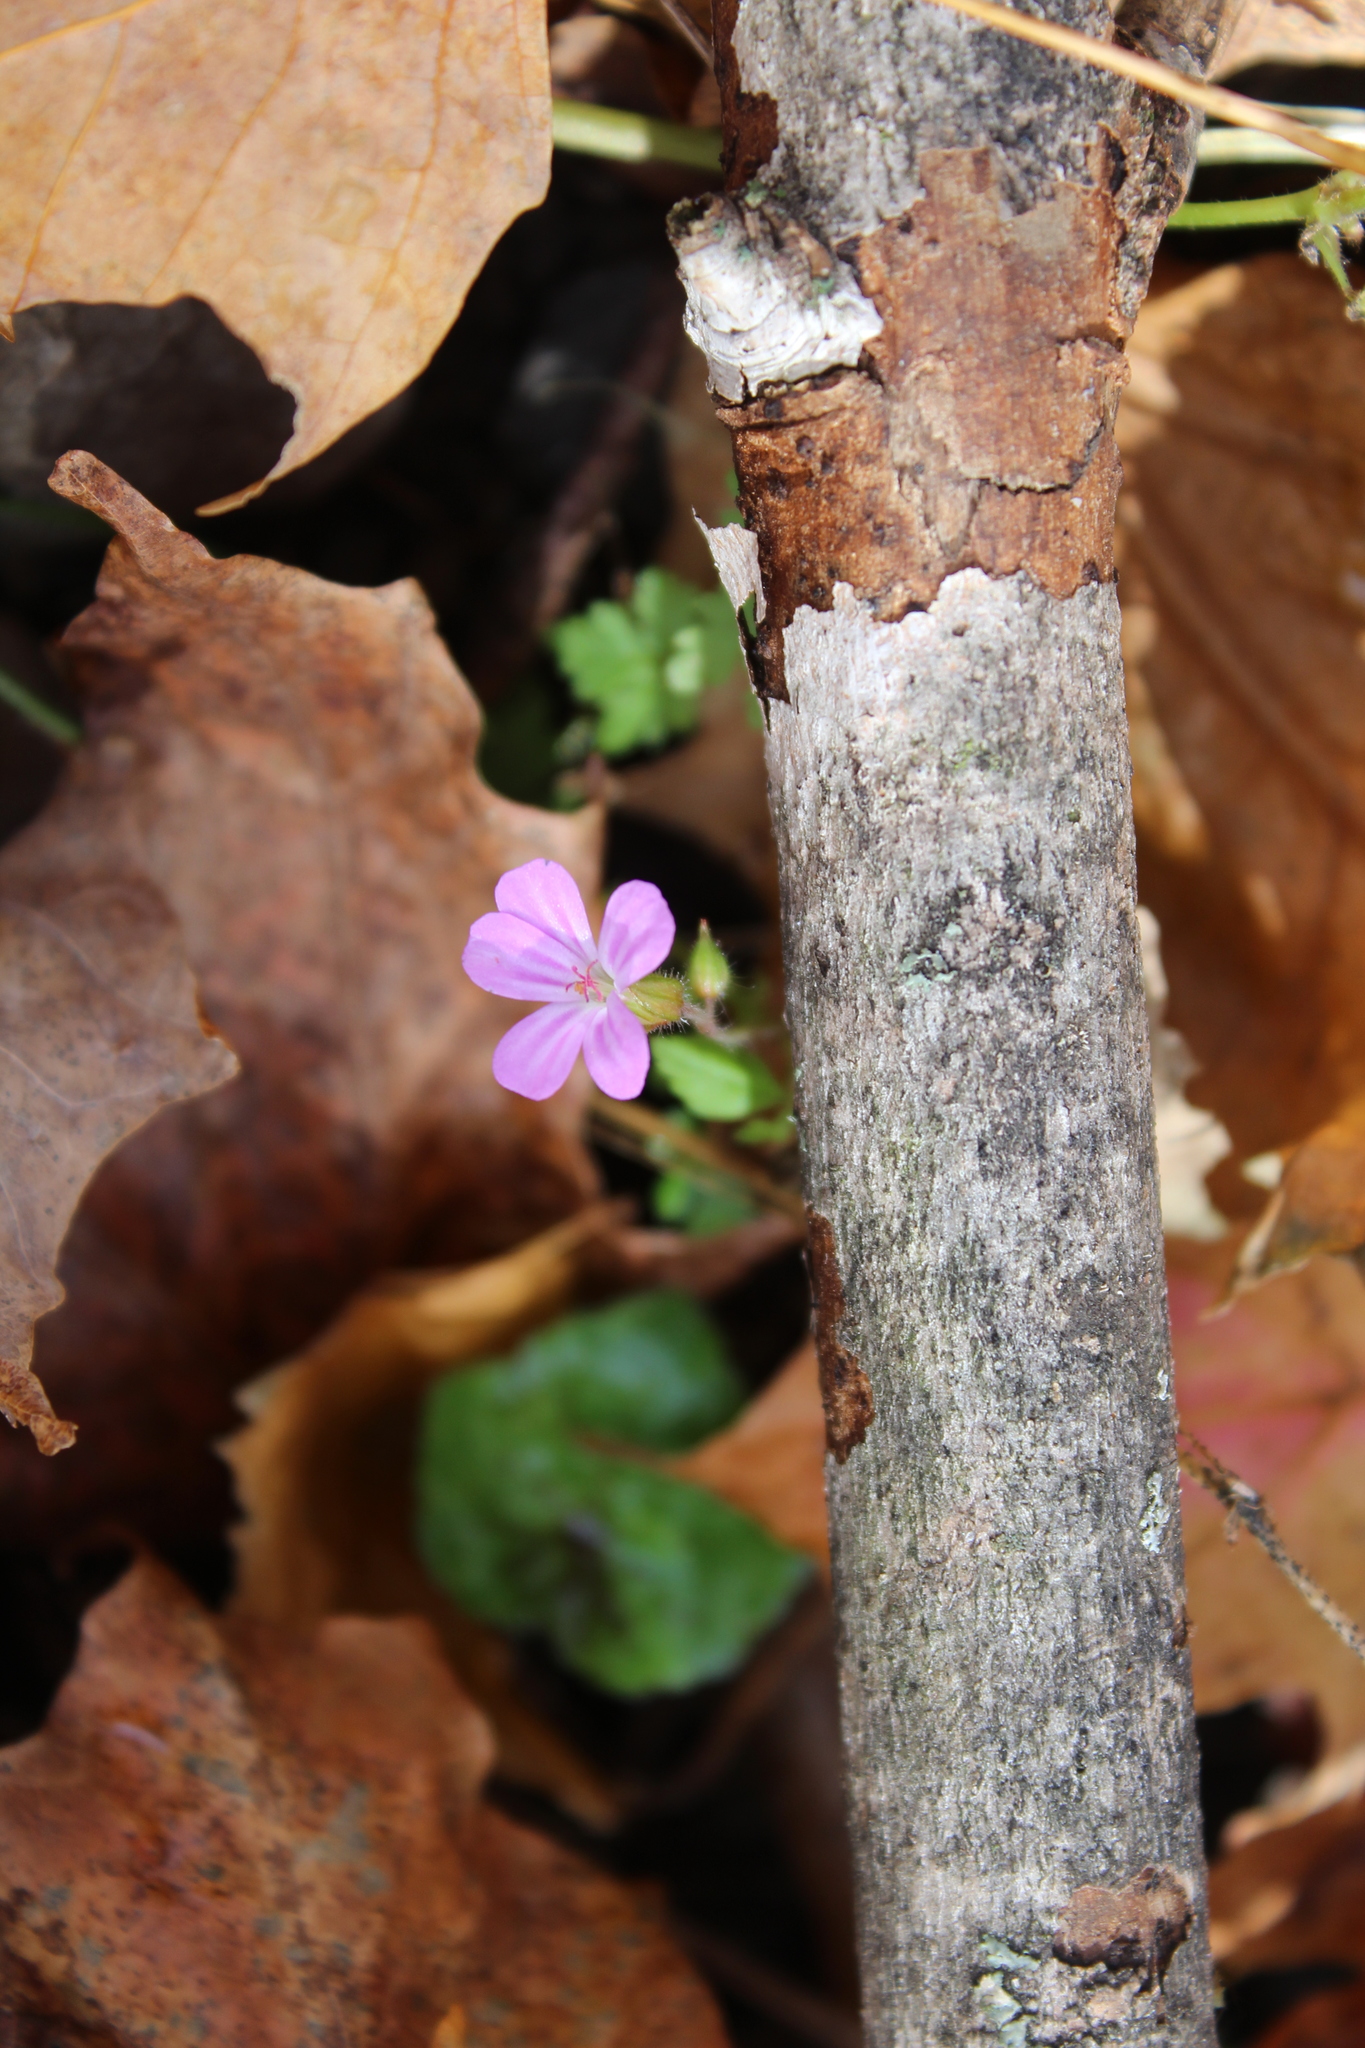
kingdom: Plantae
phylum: Tracheophyta
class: Magnoliopsida
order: Geraniales
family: Geraniaceae
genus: Geranium
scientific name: Geranium robertianum
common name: Herb-robert
